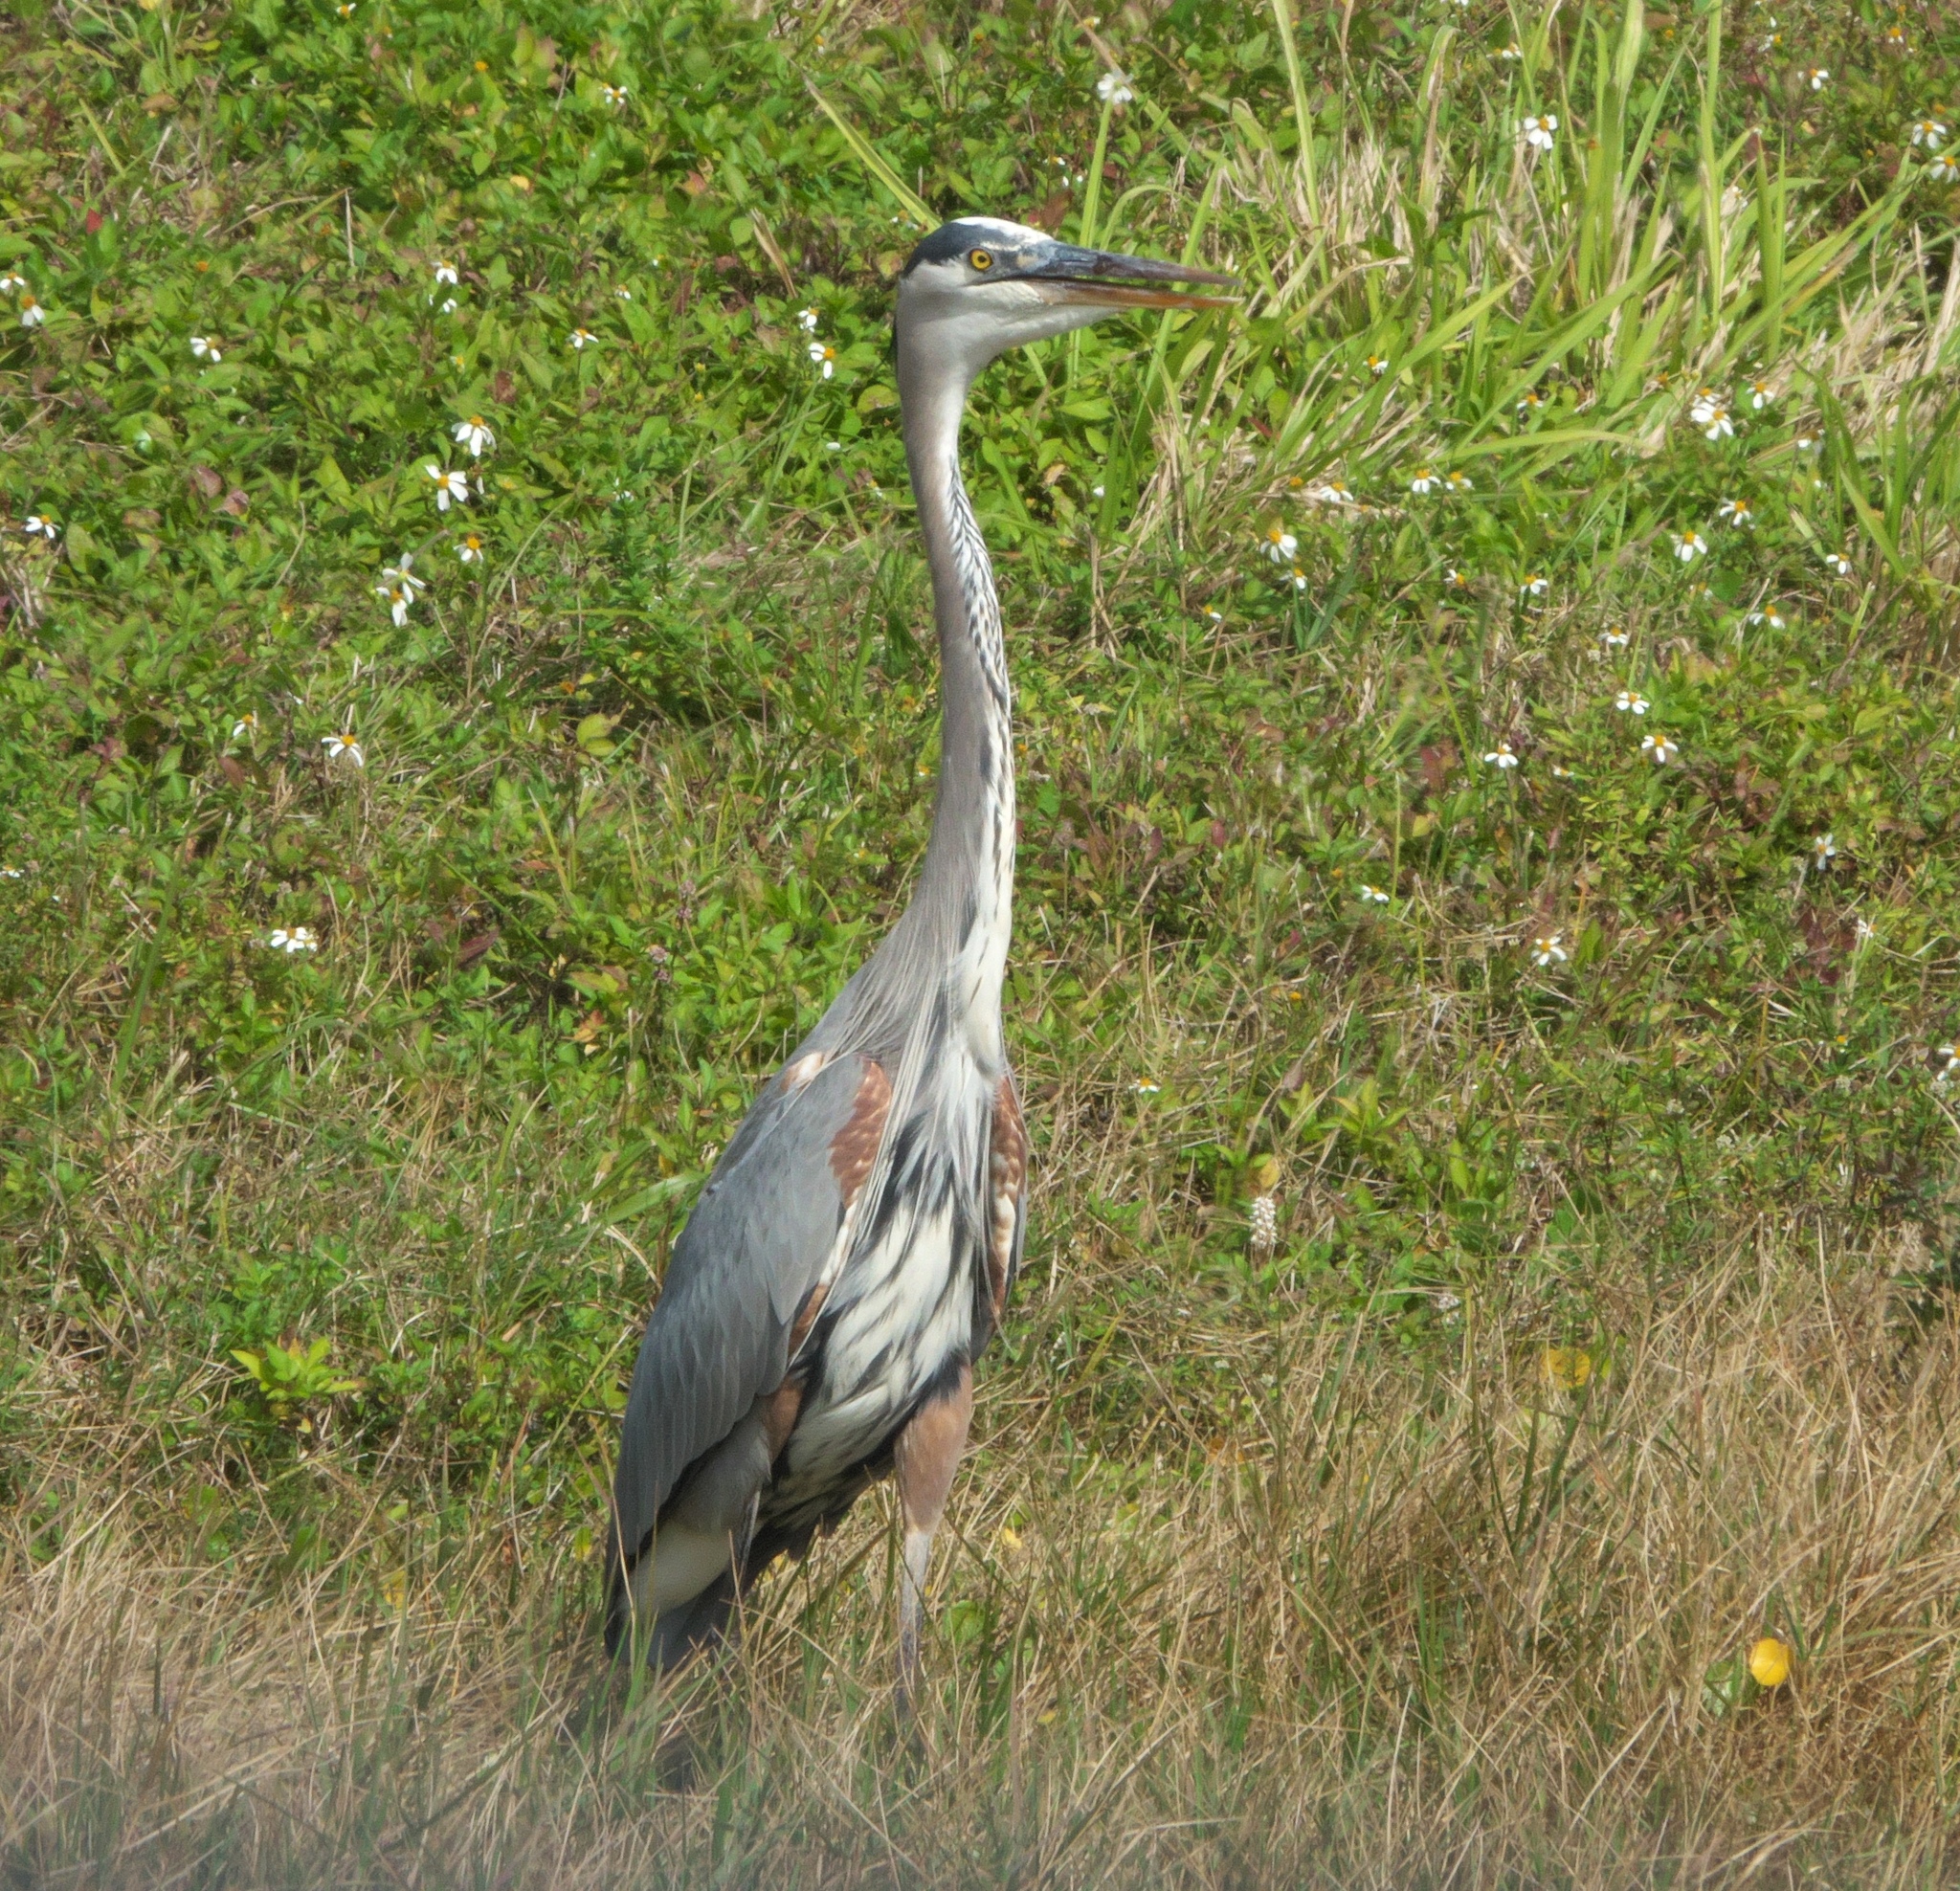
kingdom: Animalia
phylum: Chordata
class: Aves
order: Pelecaniformes
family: Ardeidae
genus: Ardea
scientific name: Ardea herodias
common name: Great blue heron
